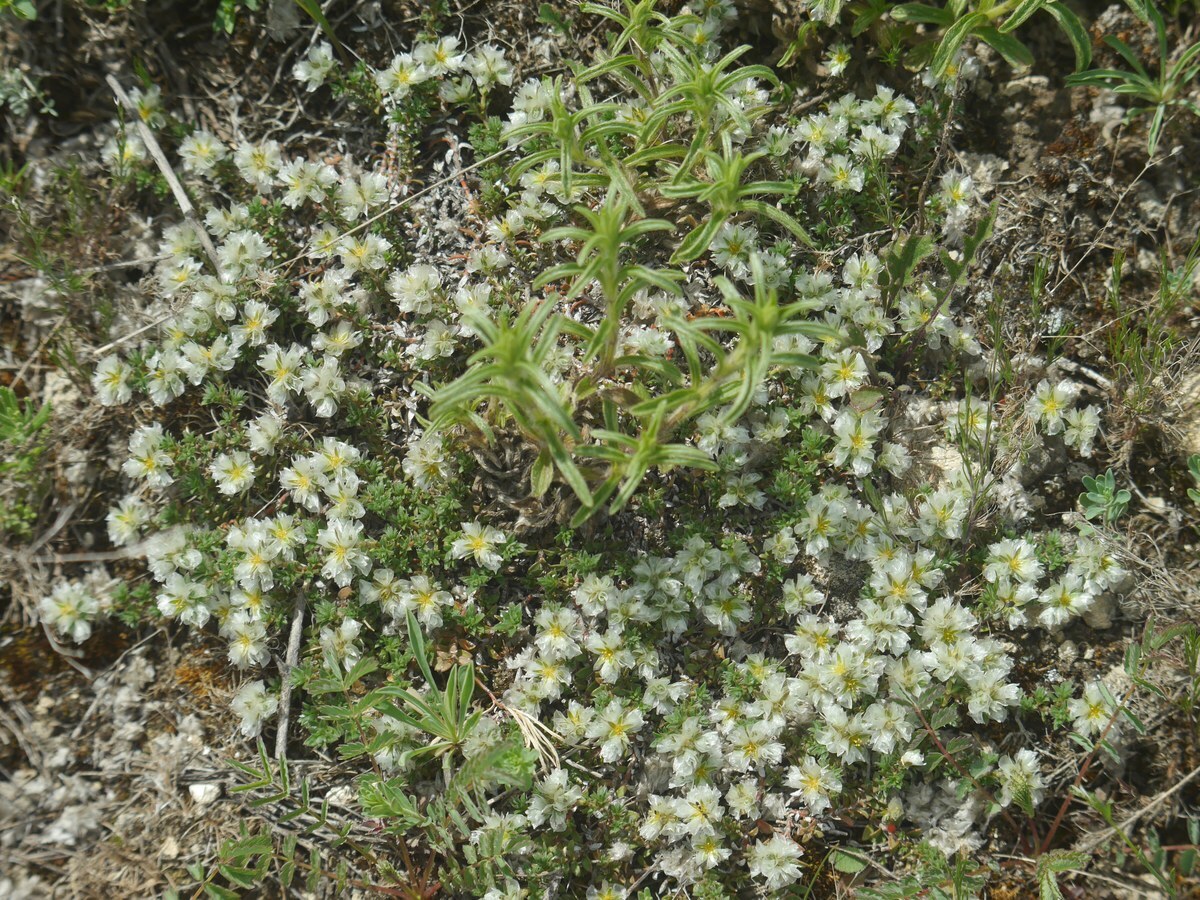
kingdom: Plantae
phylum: Tracheophyta
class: Magnoliopsida
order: Caryophyllales
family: Caryophyllaceae
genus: Paronychia
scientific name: Paronychia cephalotes
